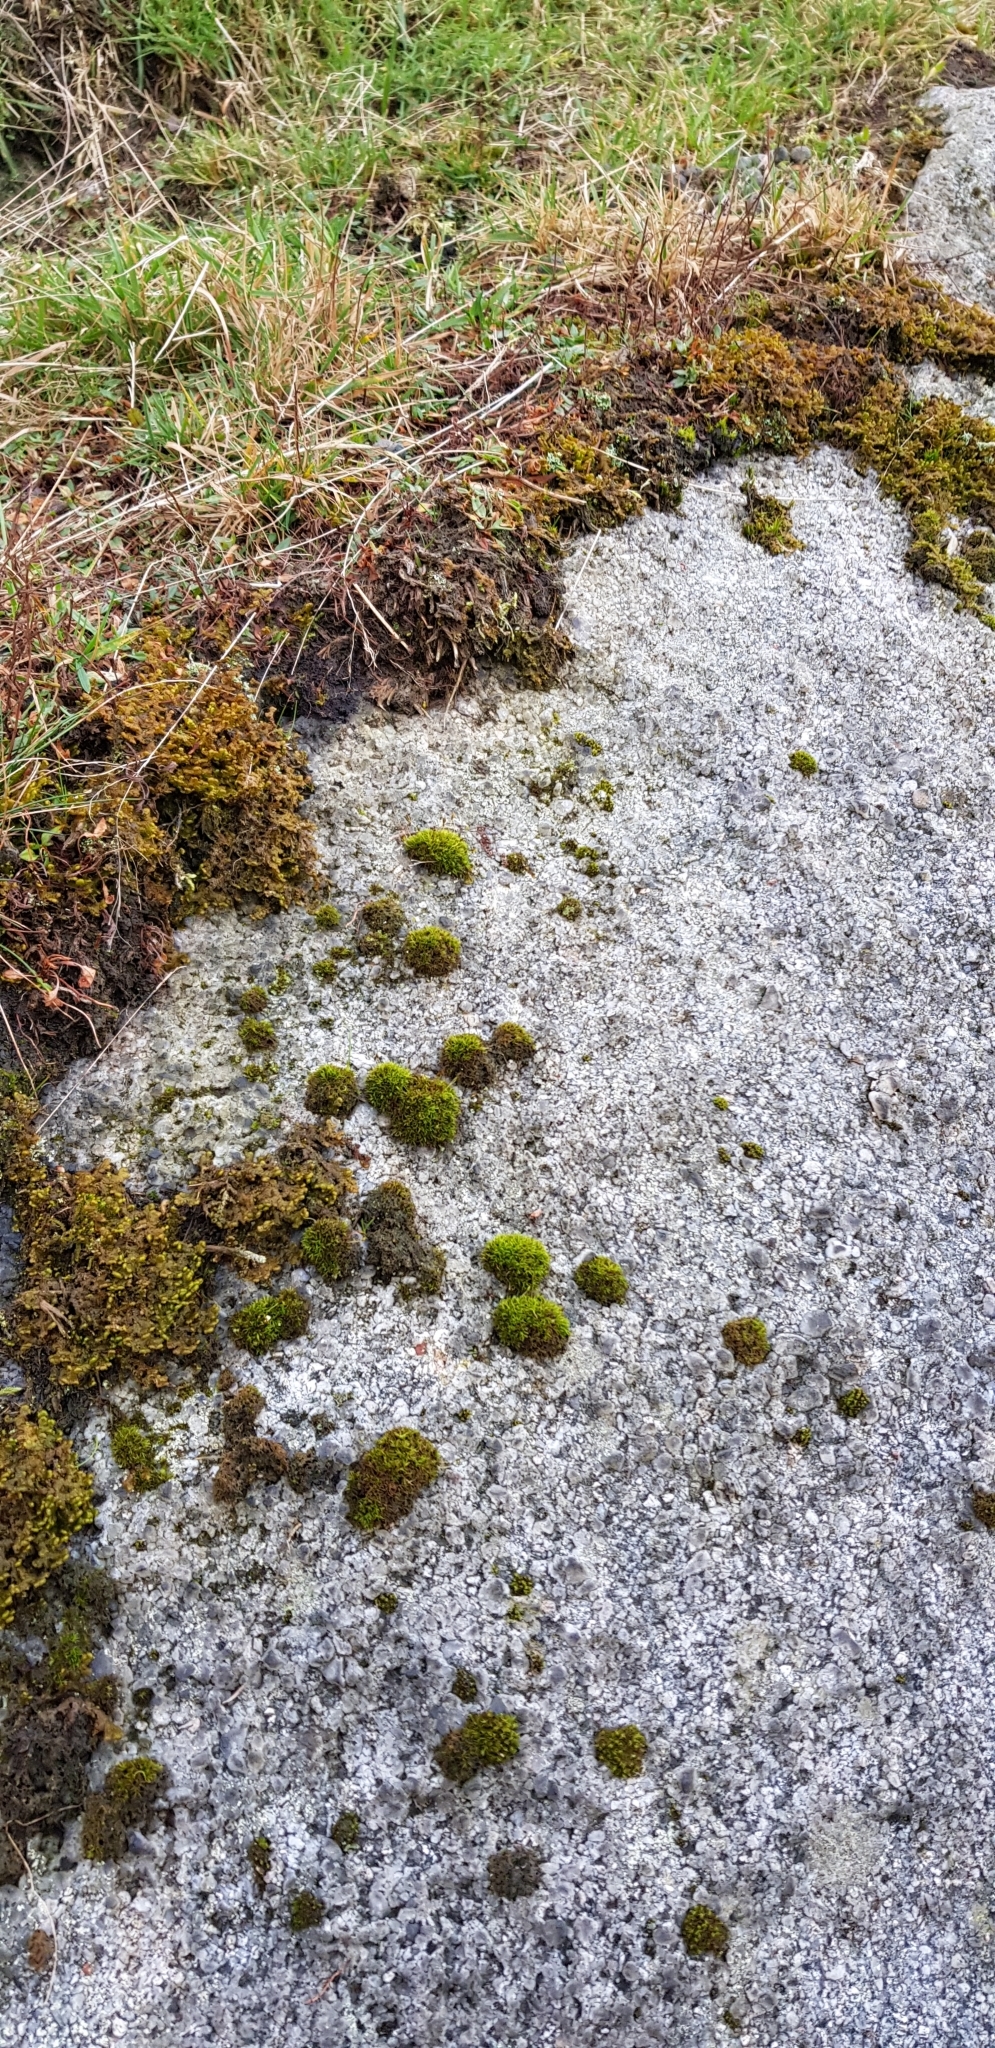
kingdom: Plantae
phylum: Bryophyta
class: Bryopsida
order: Dicranales
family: Rhabdoweisiaceae
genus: Dicranoweisia
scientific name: Dicranoweisia cirrata
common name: Common pincushion
